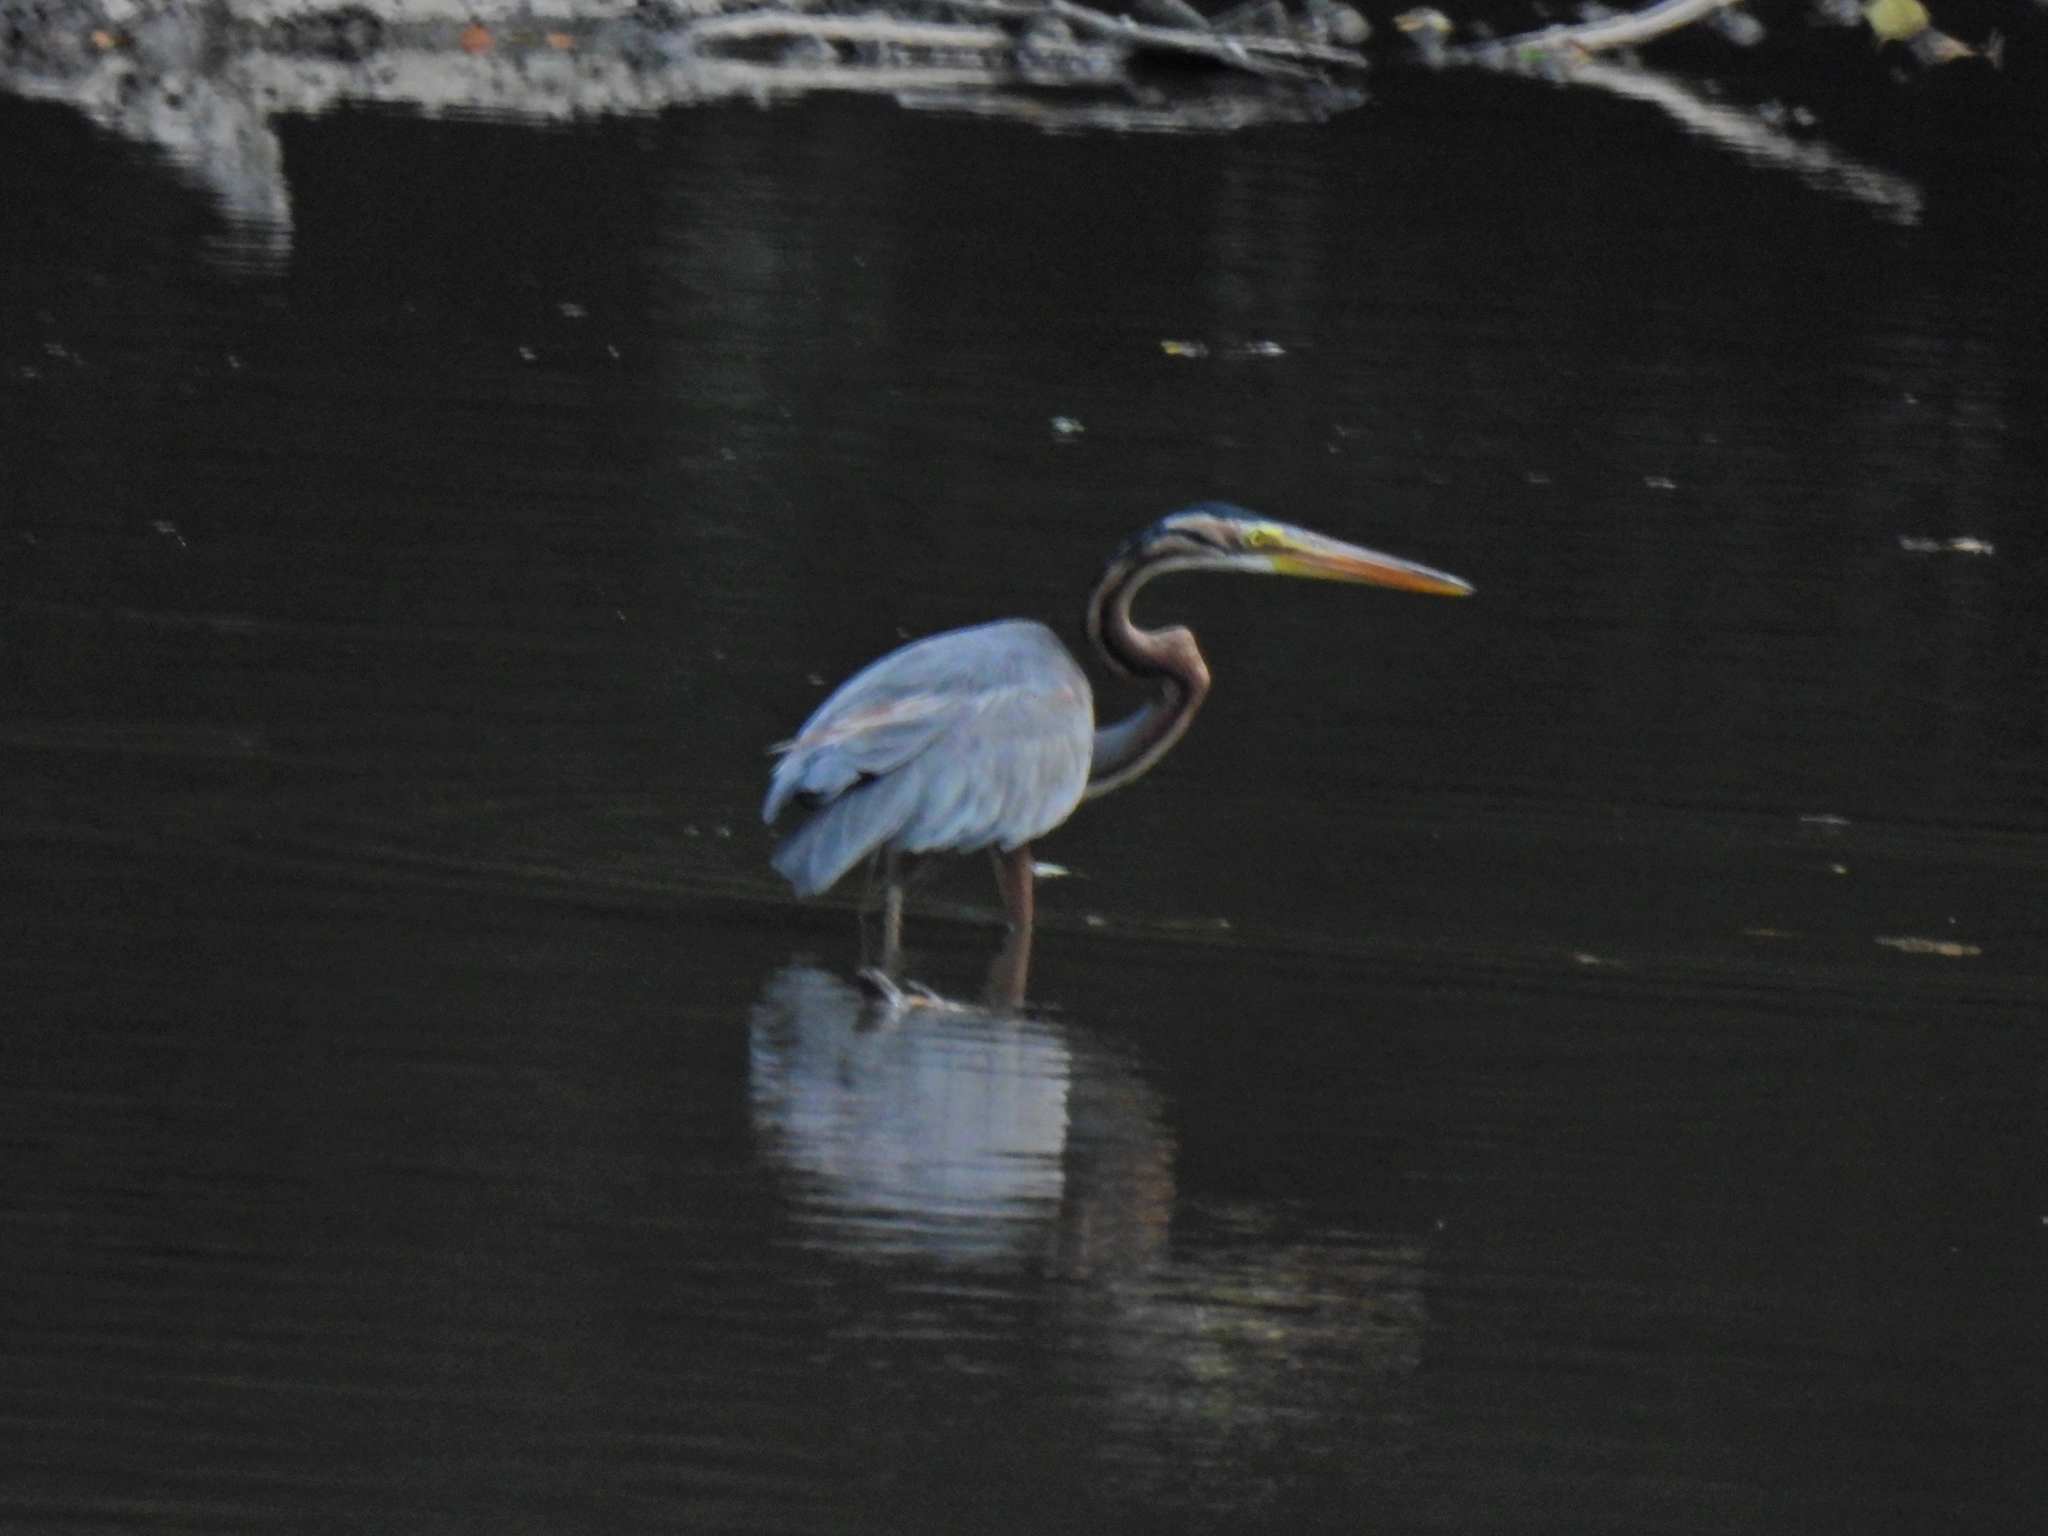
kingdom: Animalia
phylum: Chordata
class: Aves
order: Pelecaniformes
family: Ardeidae
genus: Ardea
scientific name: Ardea purpurea
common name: Purple heron
